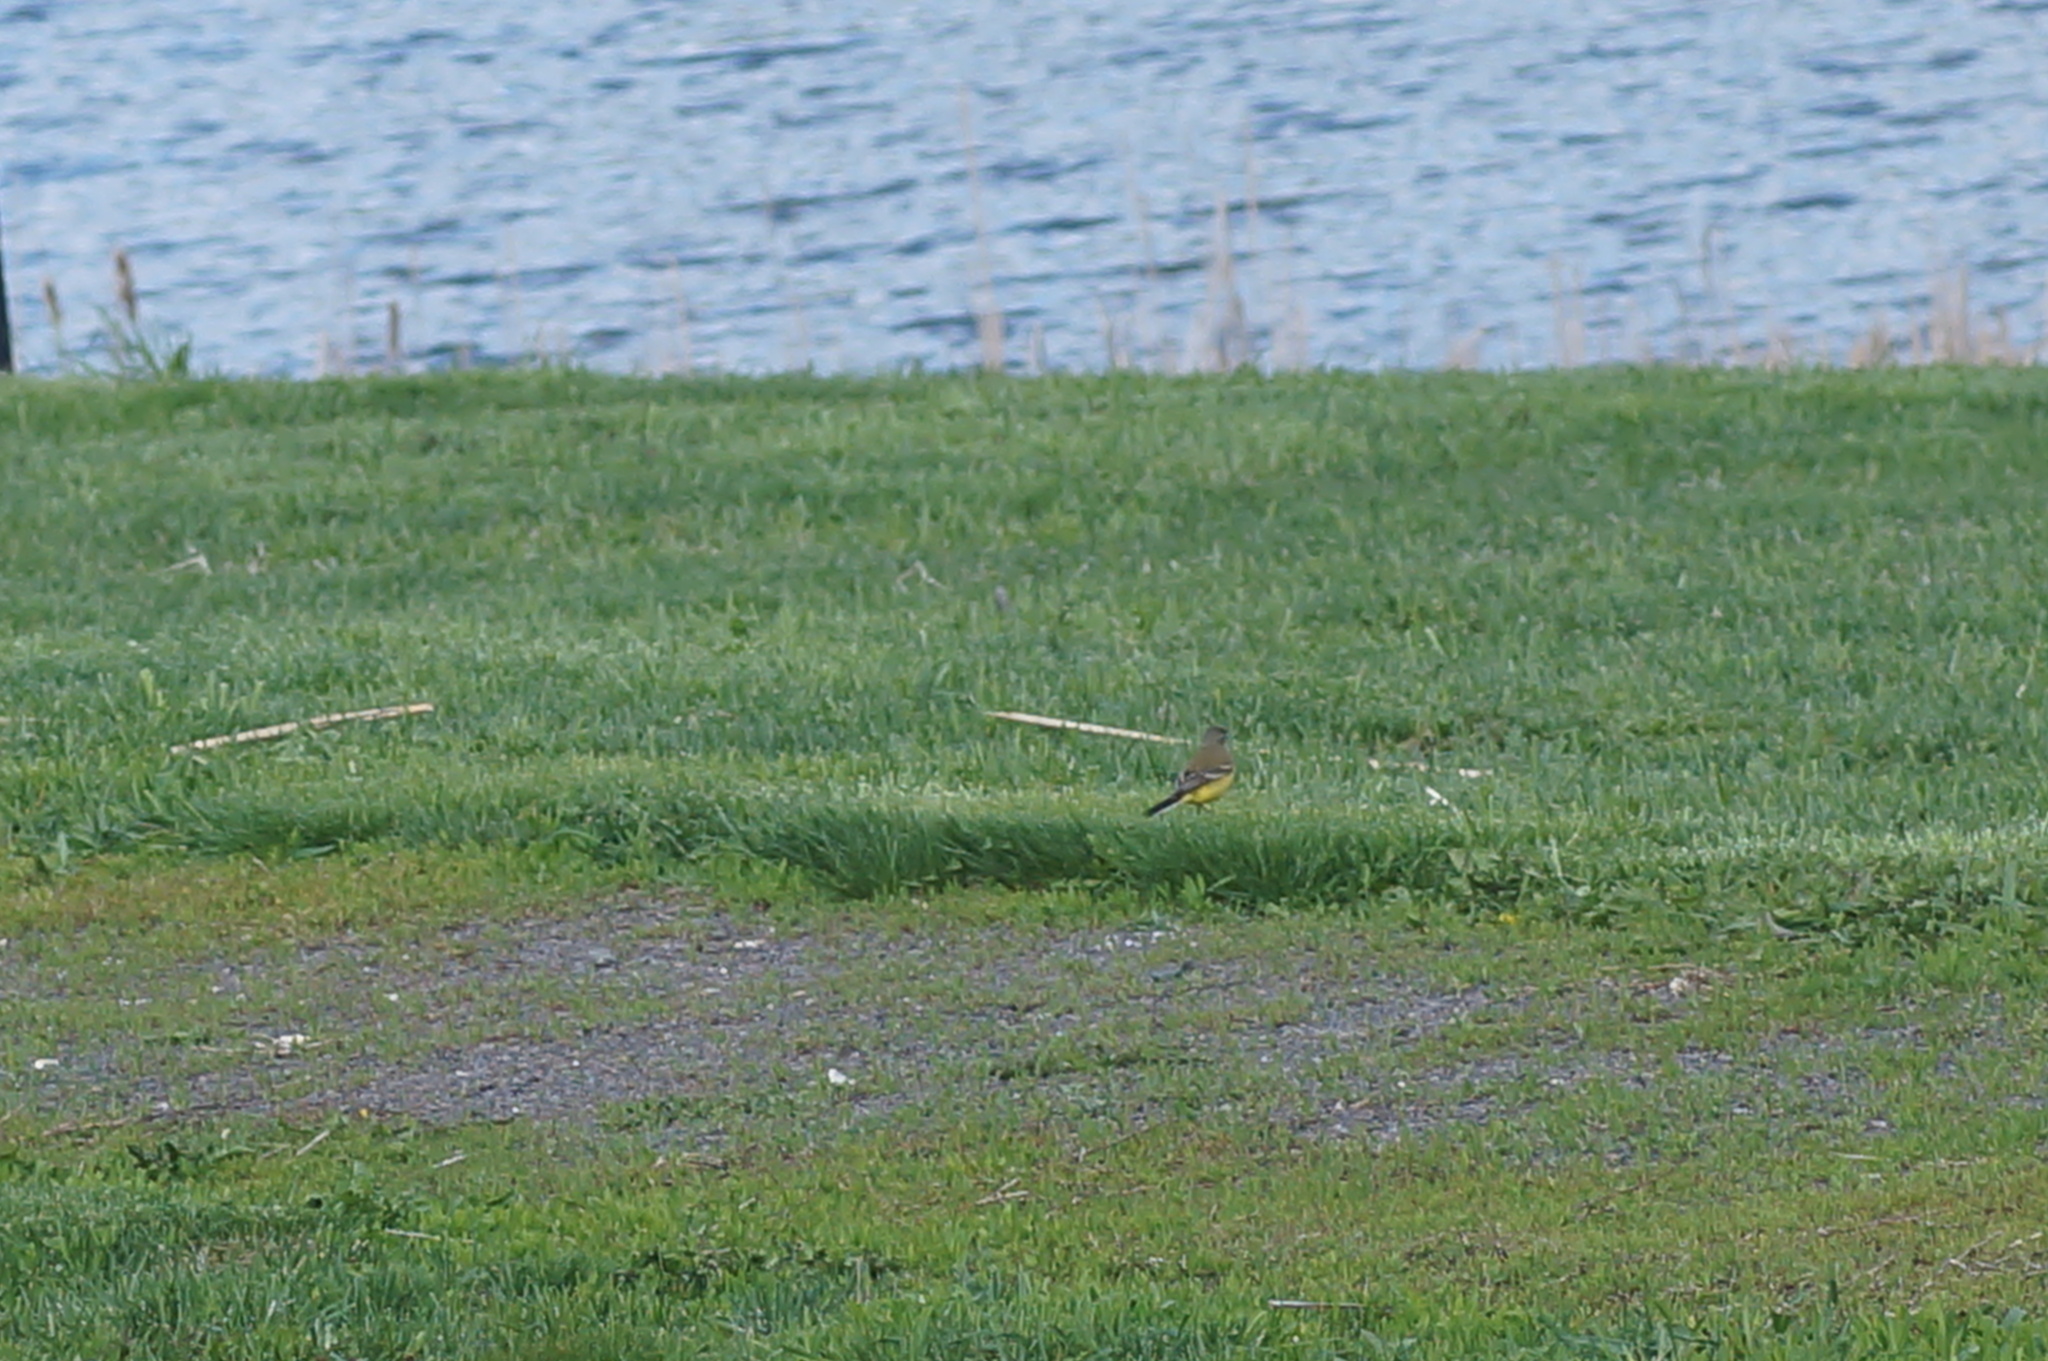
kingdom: Animalia
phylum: Chordata
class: Aves
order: Passeriformes
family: Motacillidae
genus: Motacilla
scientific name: Motacilla flava
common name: Western yellow wagtail
